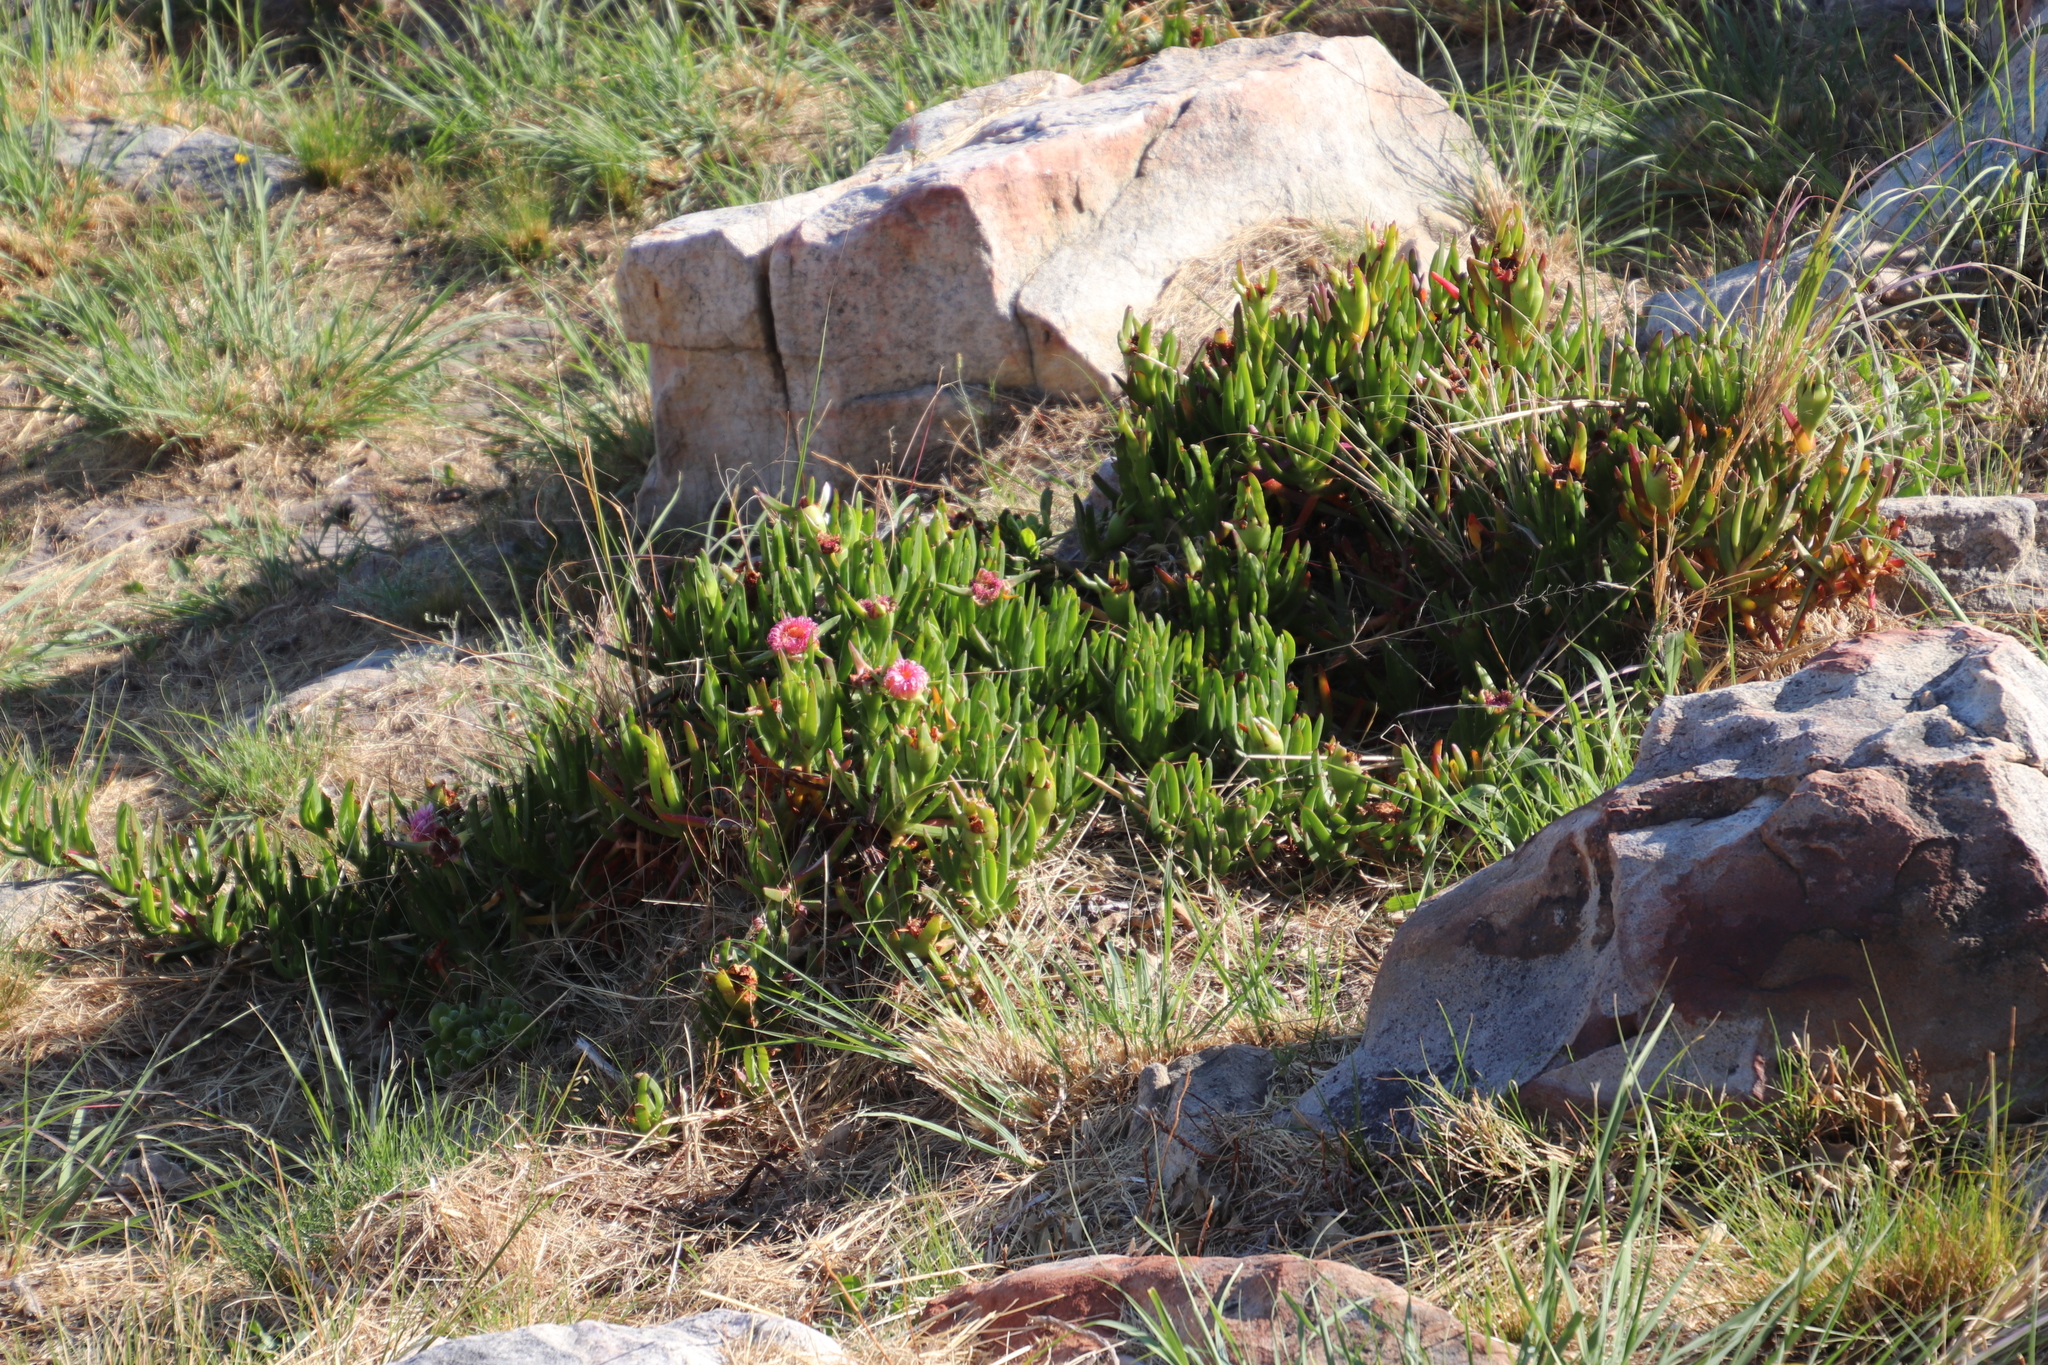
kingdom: Plantae
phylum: Tracheophyta
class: Magnoliopsida
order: Caryophyllales
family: Aizoaceae
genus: Carpobrotus
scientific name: Carpobrotus edulis
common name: Hottentot-fig
